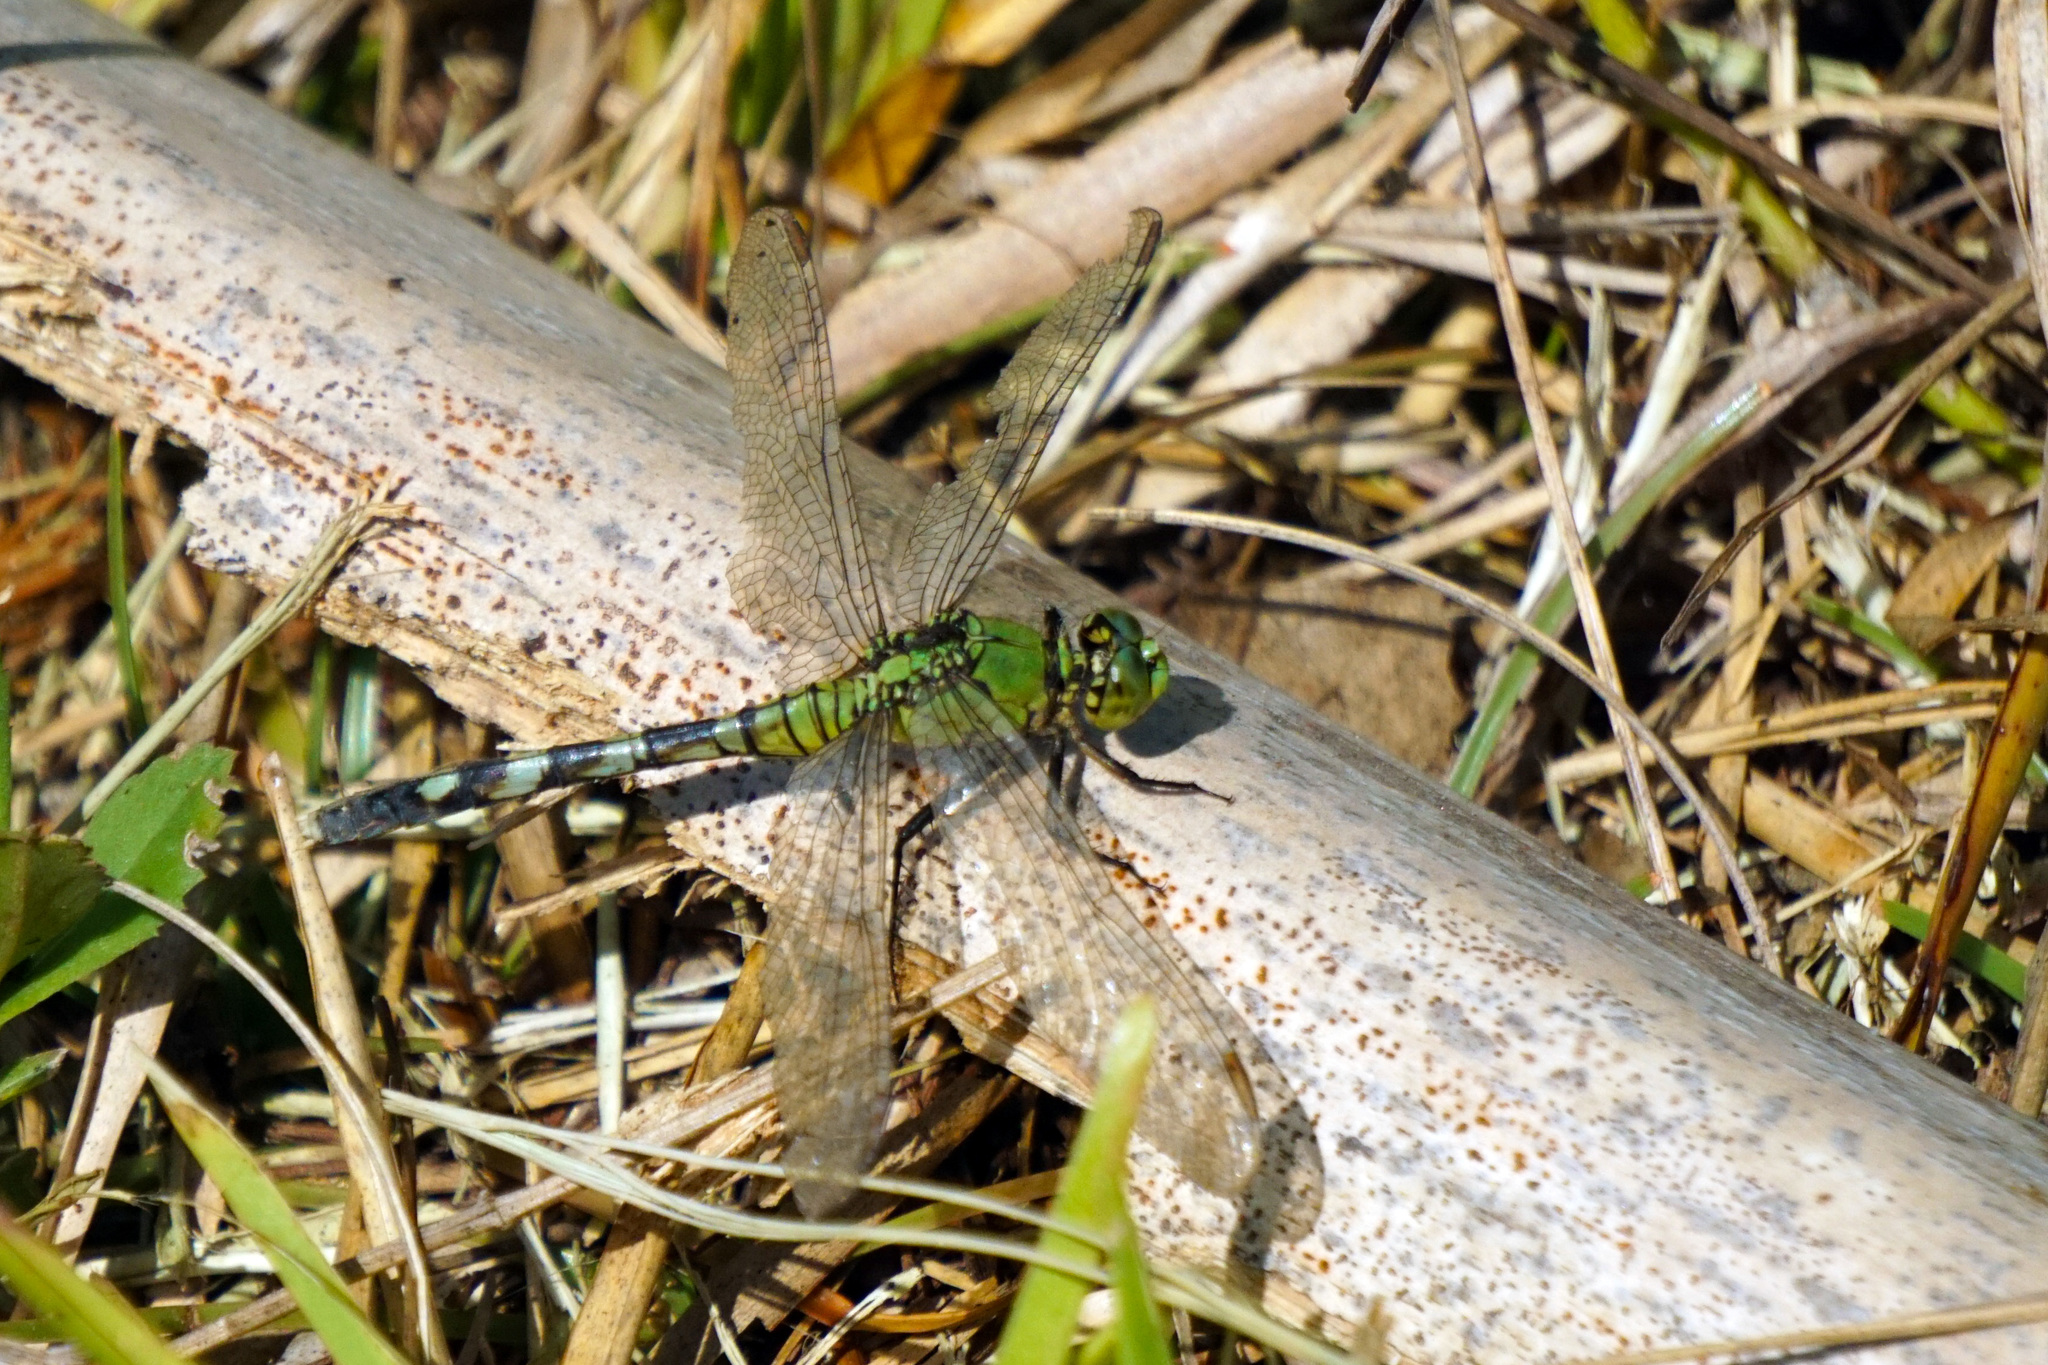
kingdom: Animalia
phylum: Arthropoda
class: Insecta
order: Odonata
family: Libellulidae
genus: Erythemis
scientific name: Erythemis simplicicollis
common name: Eastern pondhawk
